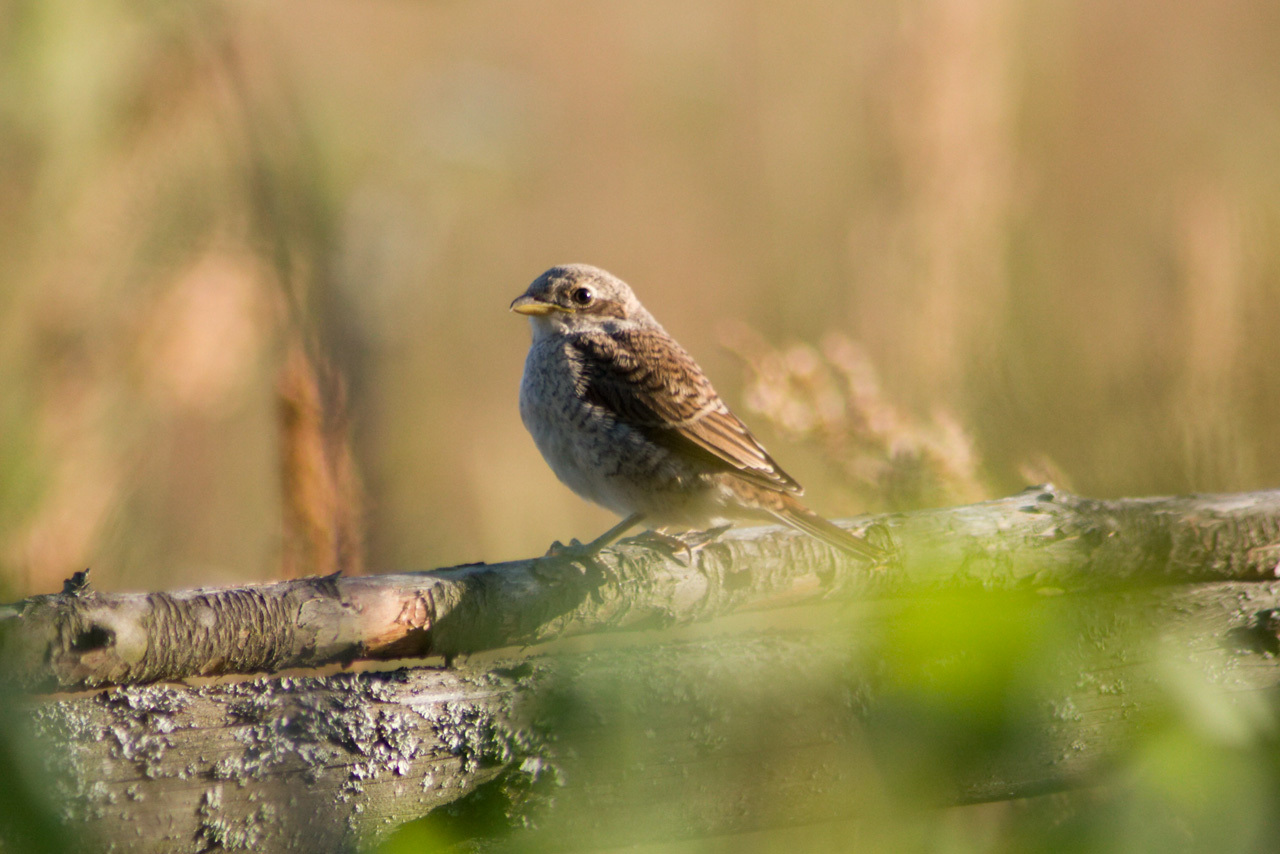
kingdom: Animalia
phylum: Chordata
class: Aves
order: Passeriformes
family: Laniidae
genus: Lanius
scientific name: Lanius collurio
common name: Red-backed shrike
